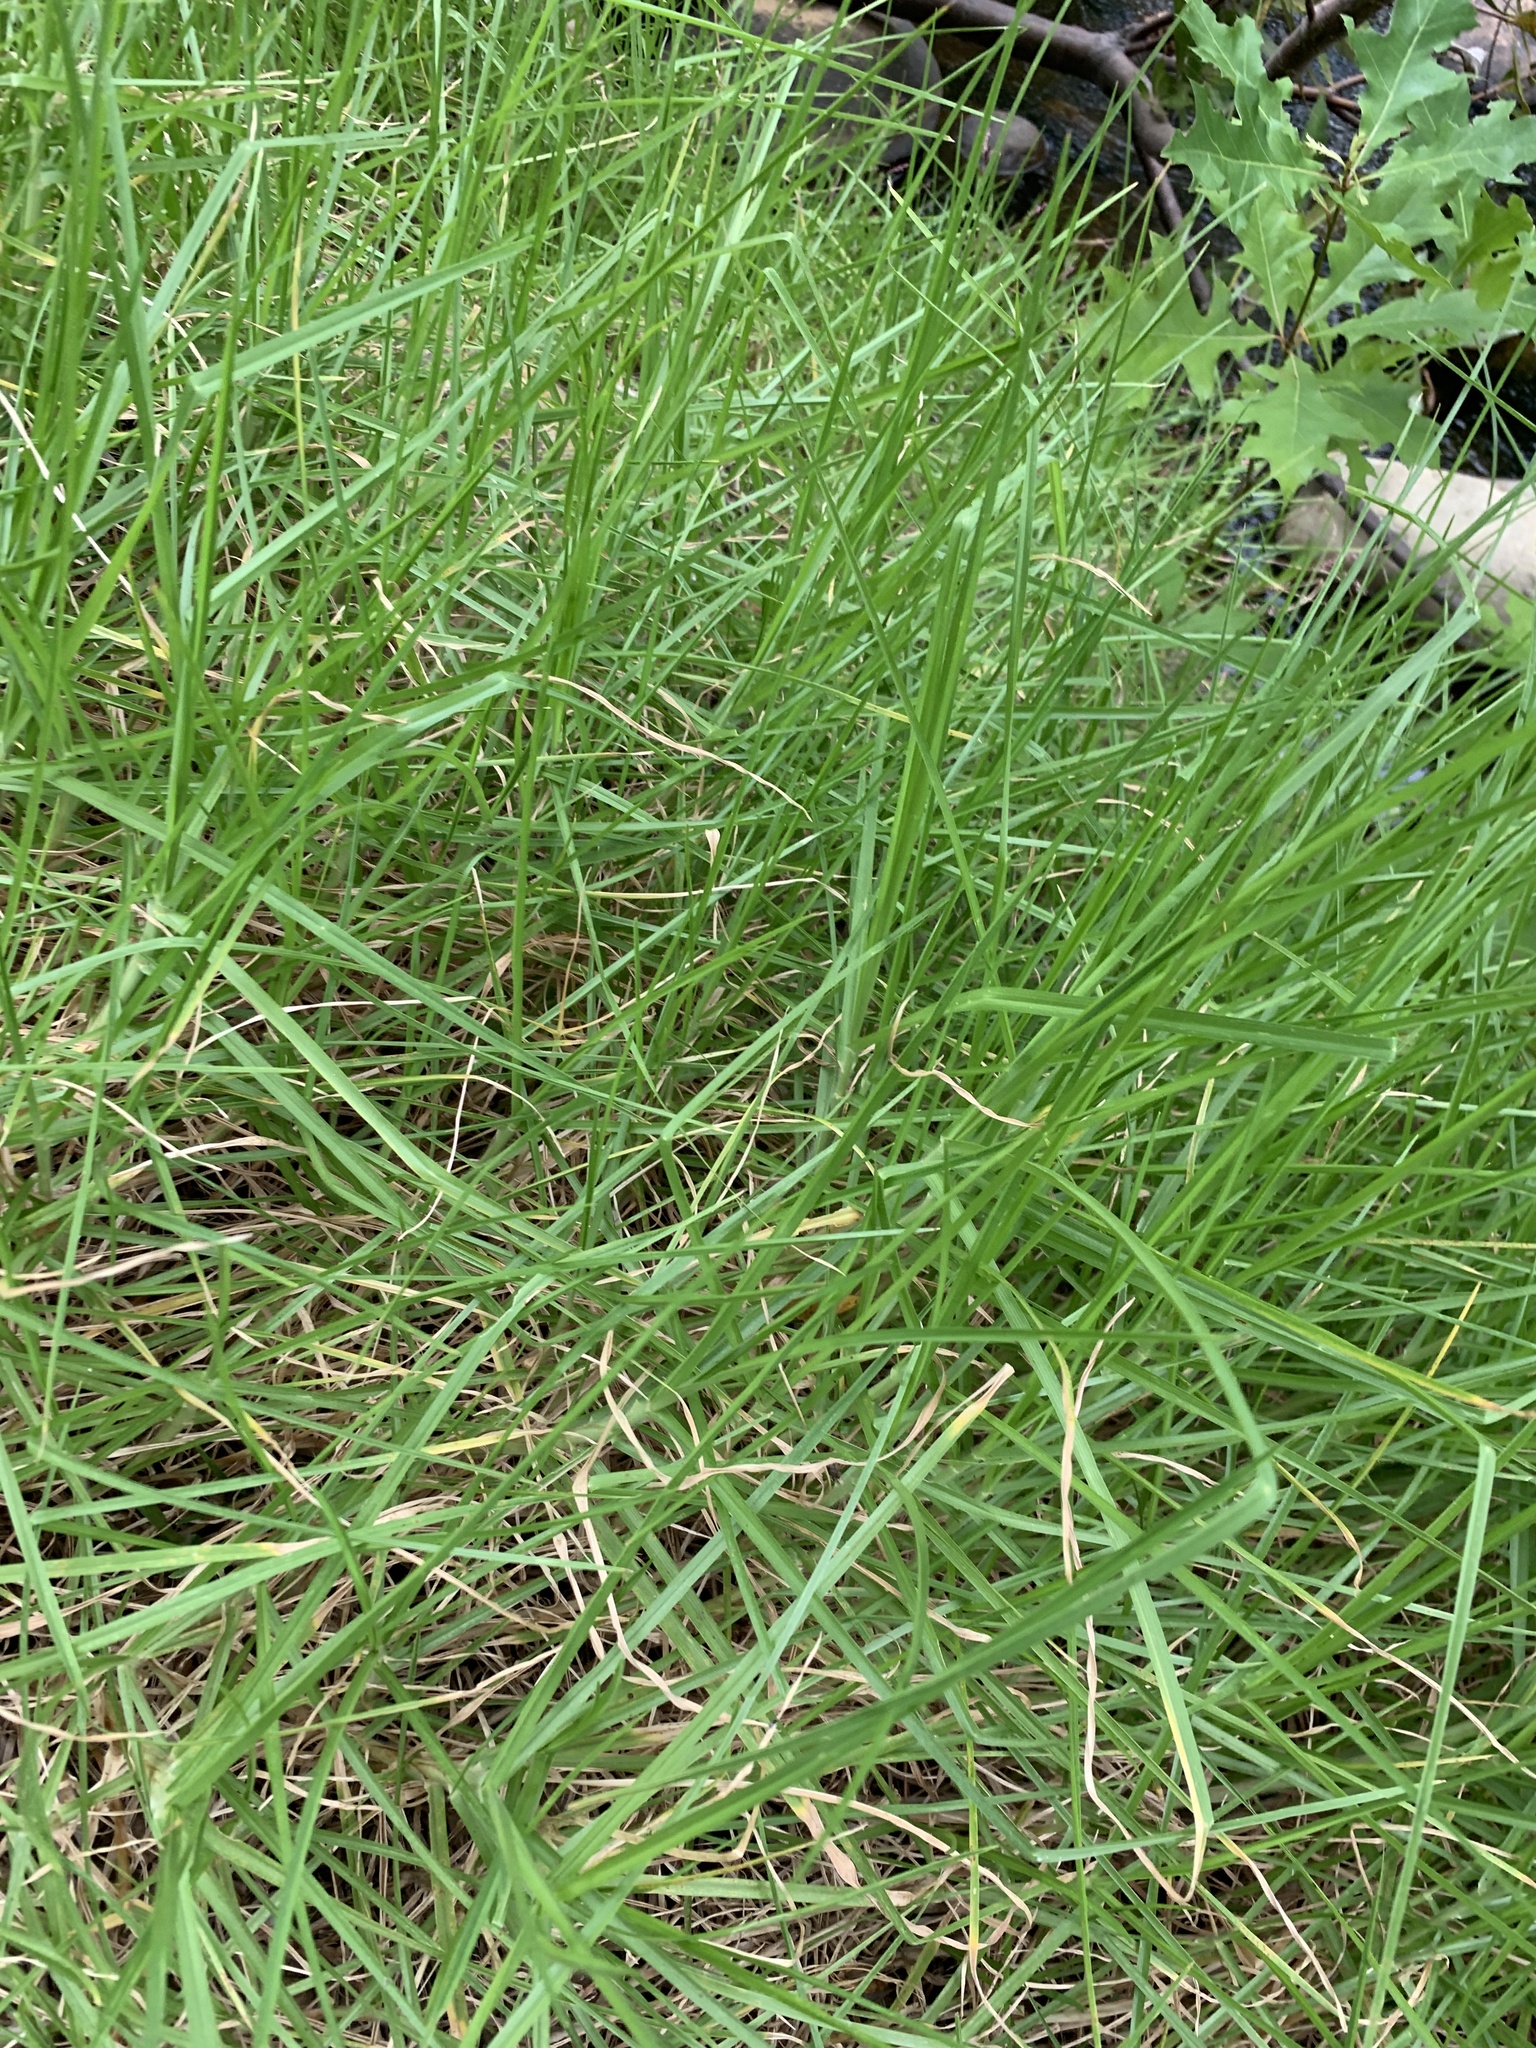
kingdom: Plantae
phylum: Tracheophyta
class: Liliopsida
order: Poales
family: Poaceae
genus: Cenchrus
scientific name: Cenchrus clandestinus
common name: Kikuyugrass
